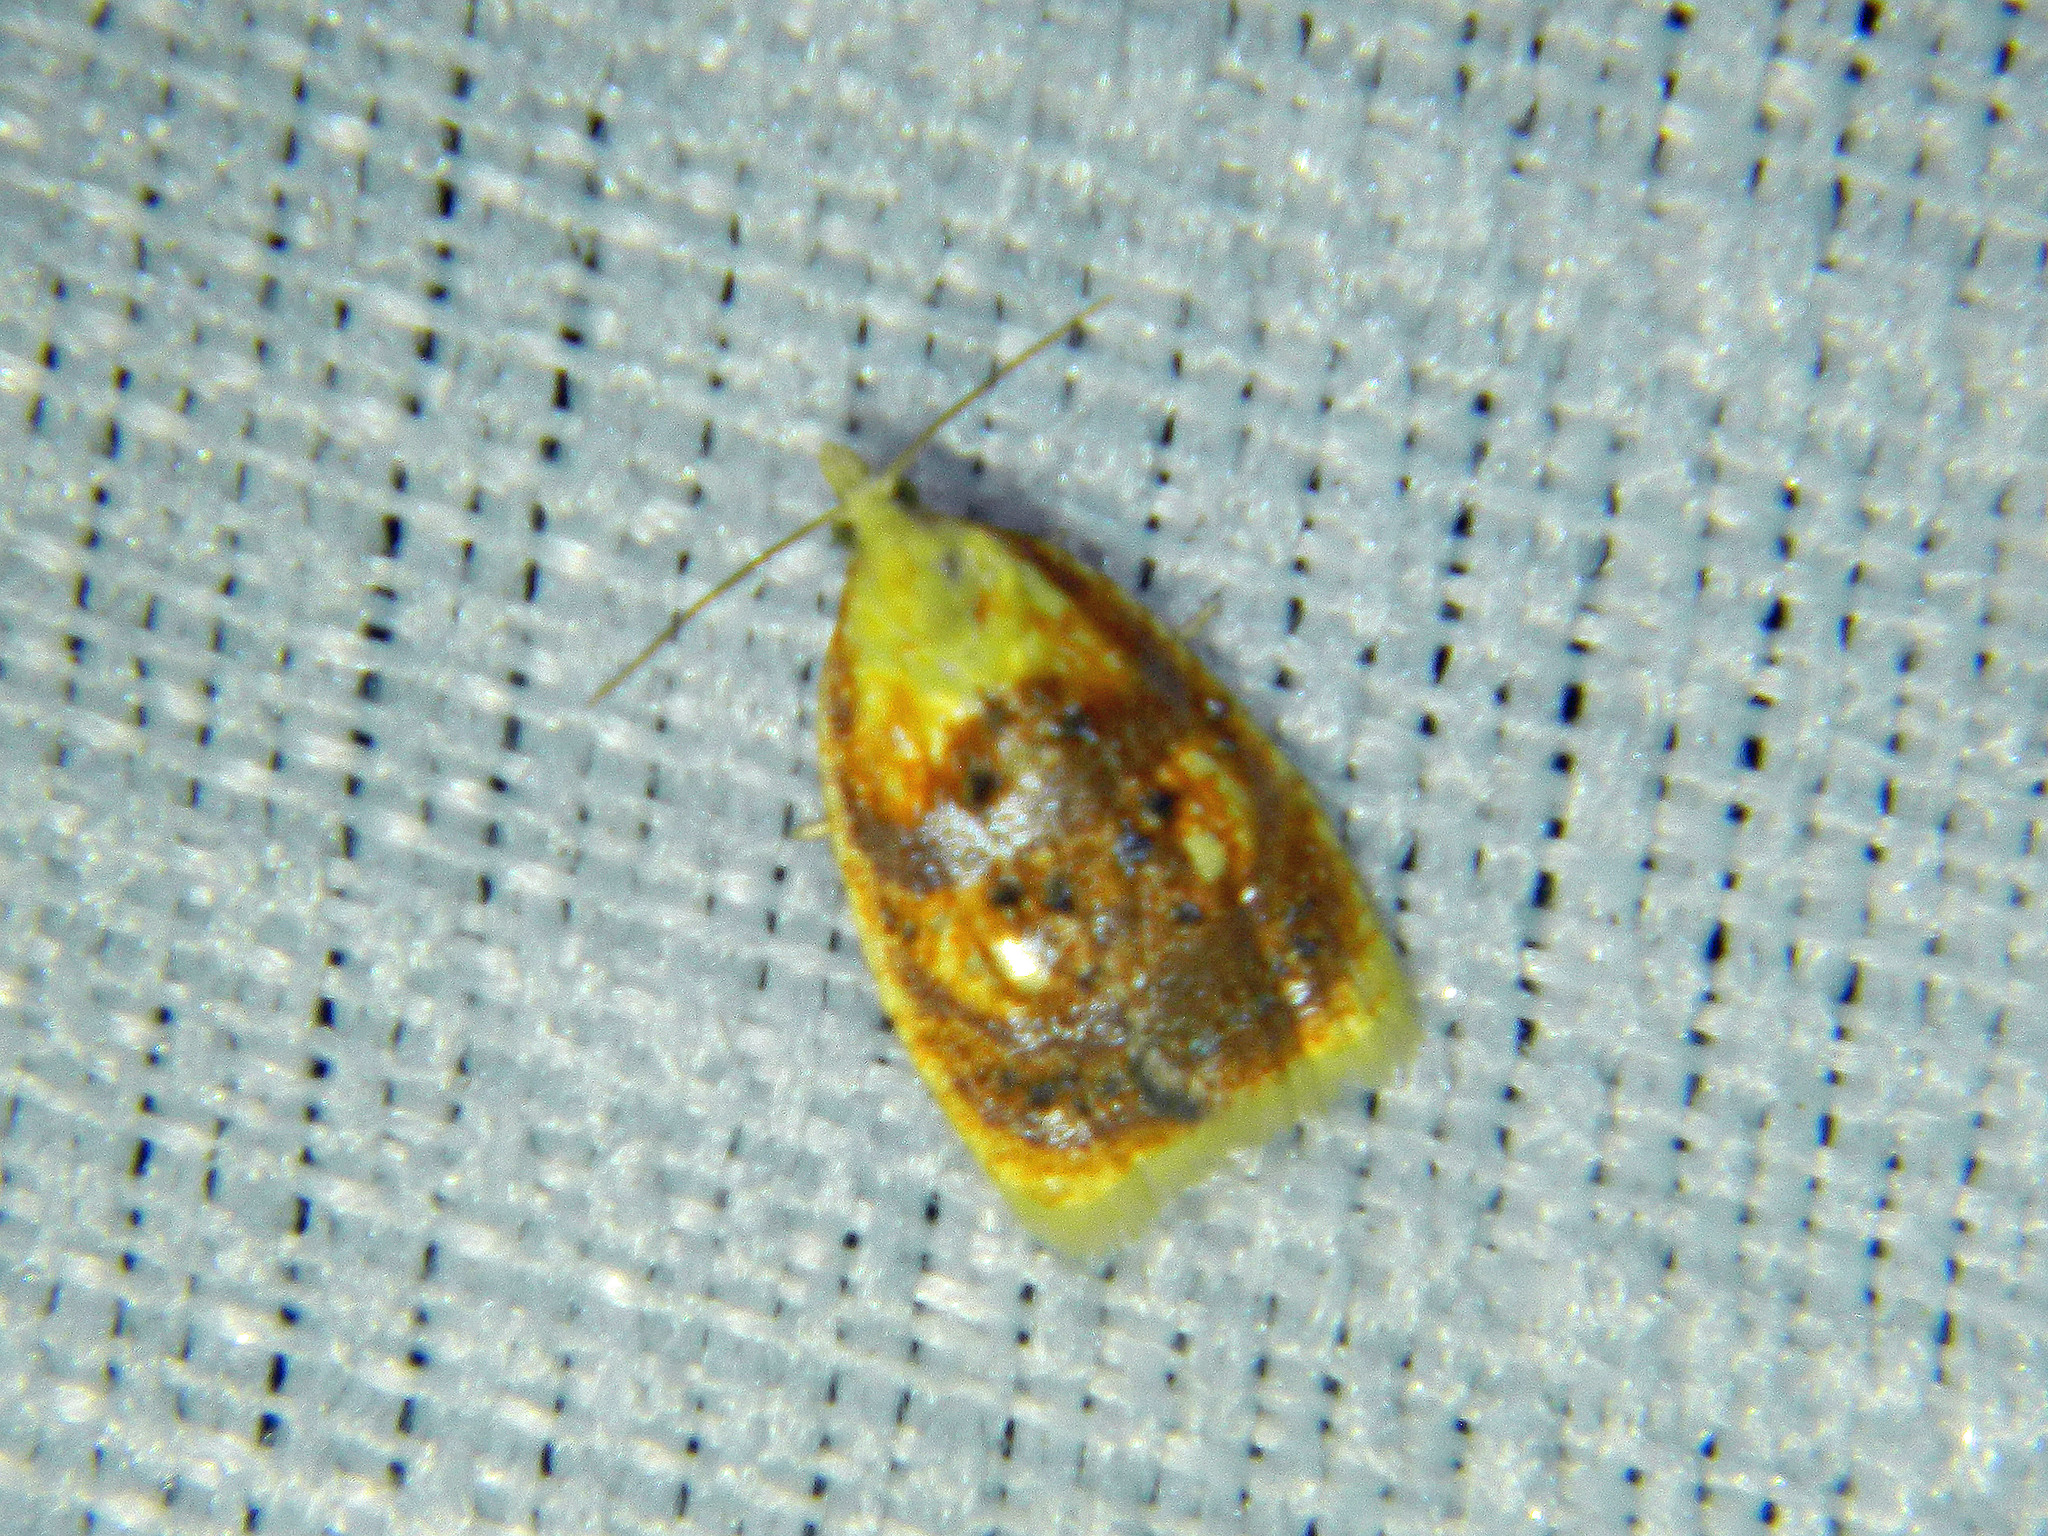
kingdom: Animalia
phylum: Arthropoda
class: Insecta
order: Lepidoptera
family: Tortricidae
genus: Acleris
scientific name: Acleris curvalana
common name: Blueberry leaftier moth
